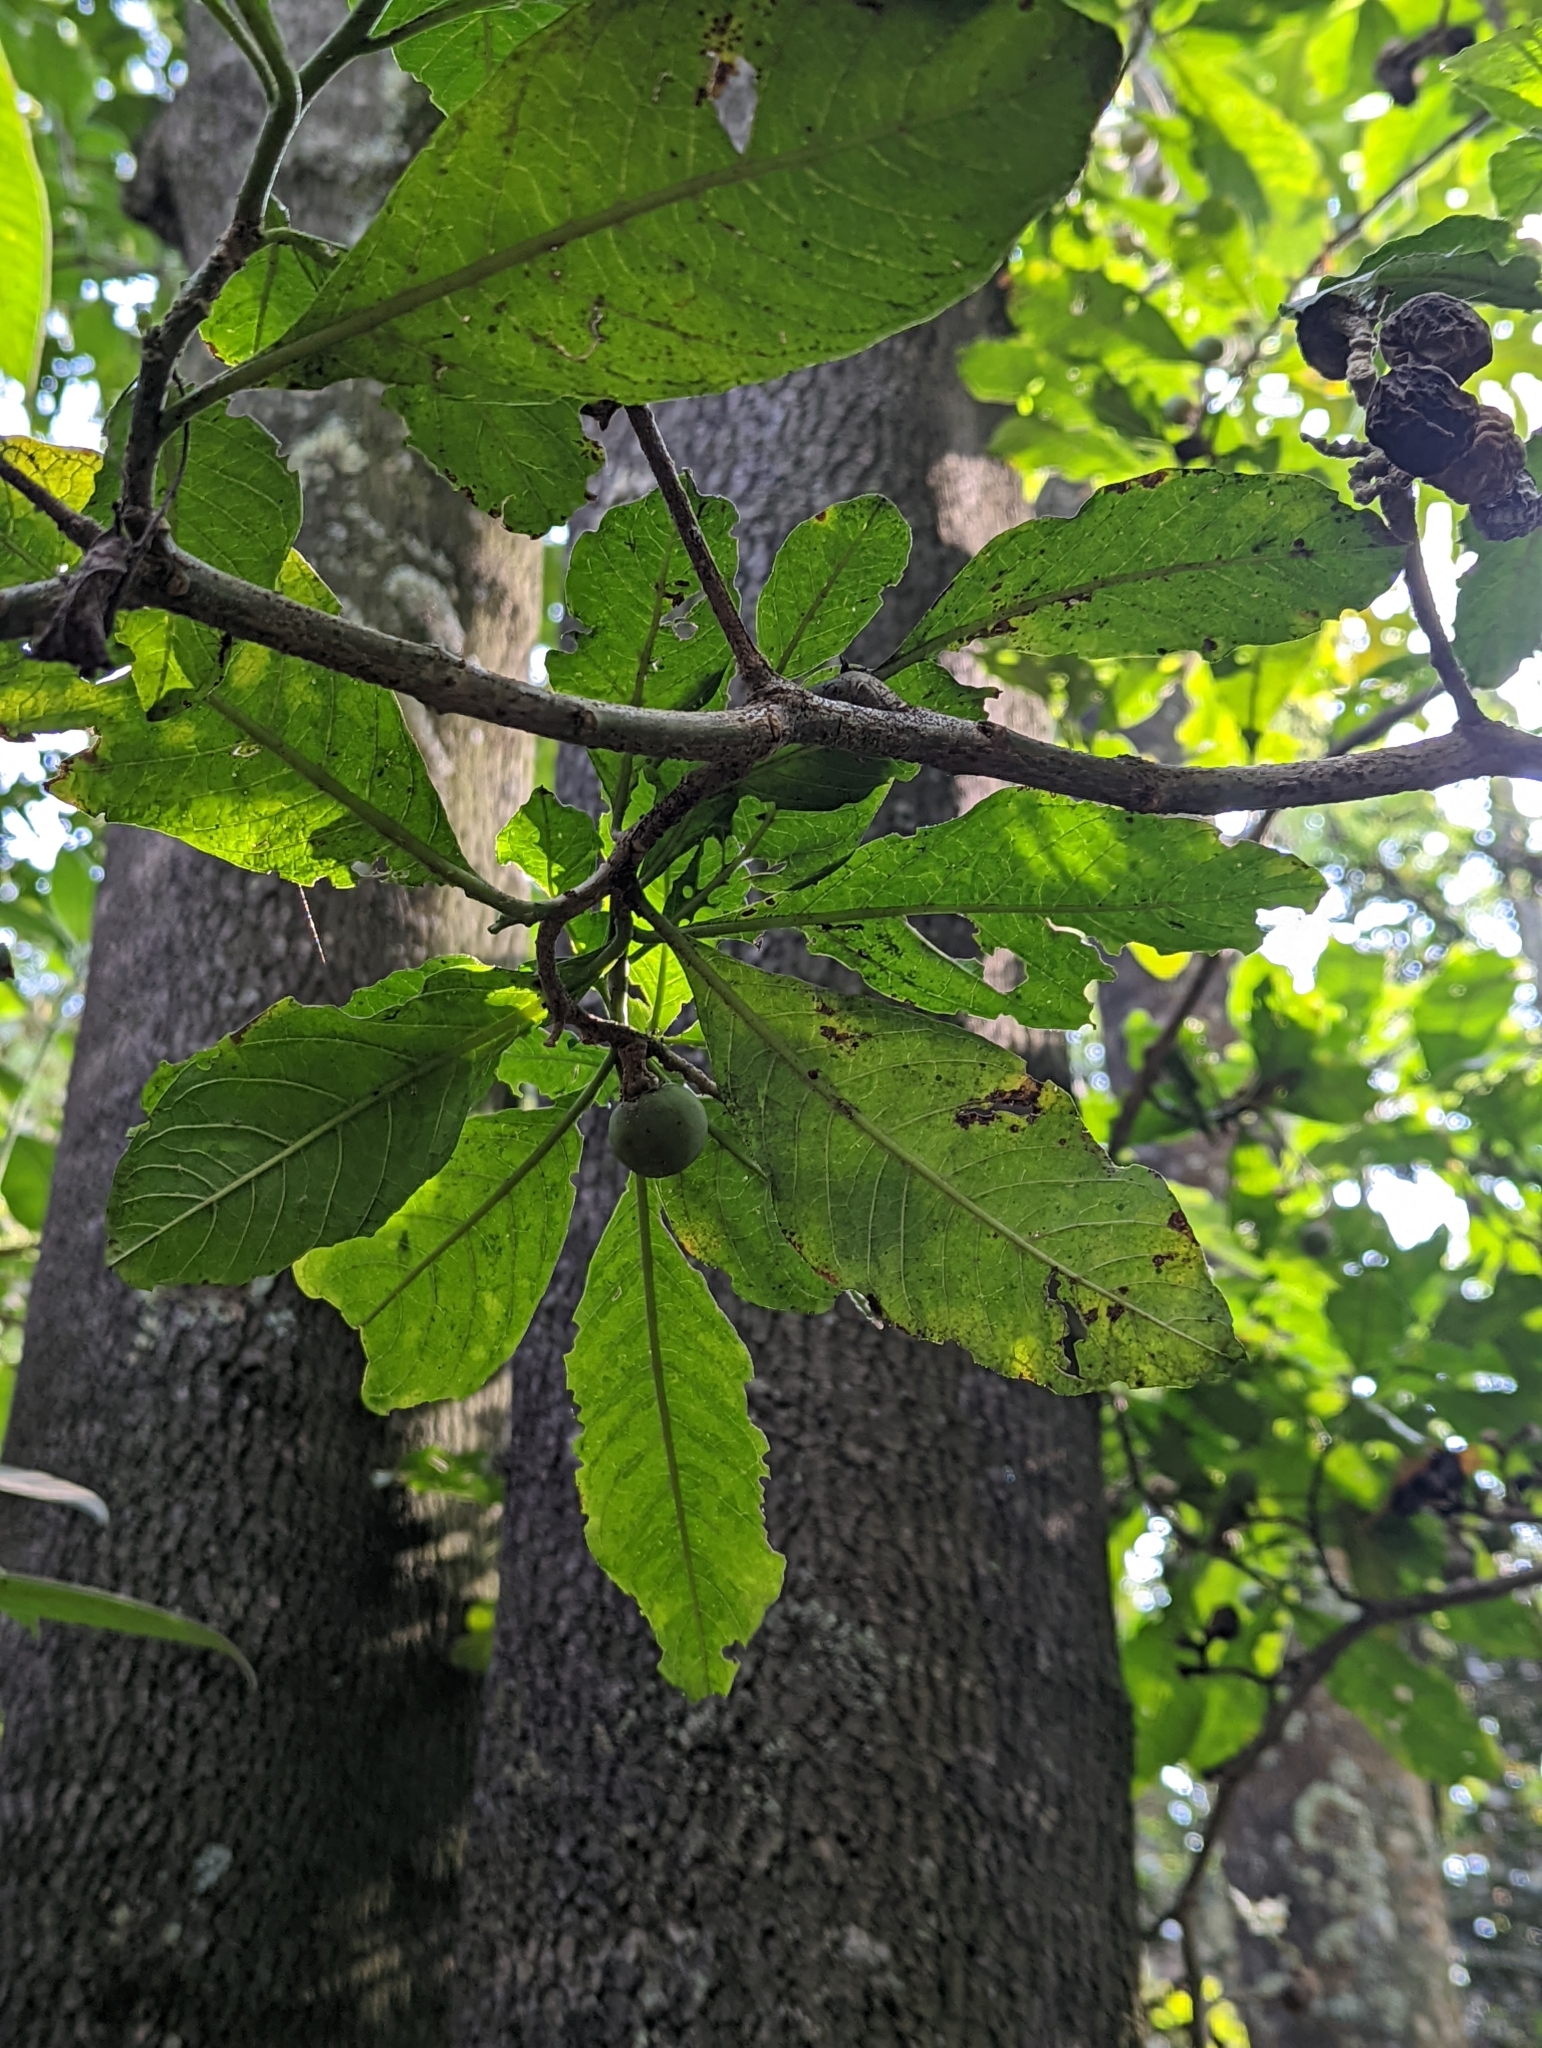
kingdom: Plantae
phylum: Tracheophyta
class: Magnoliopsida
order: Solanales
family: Solanaceae
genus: Solanum
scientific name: Solanum oblongifolium
